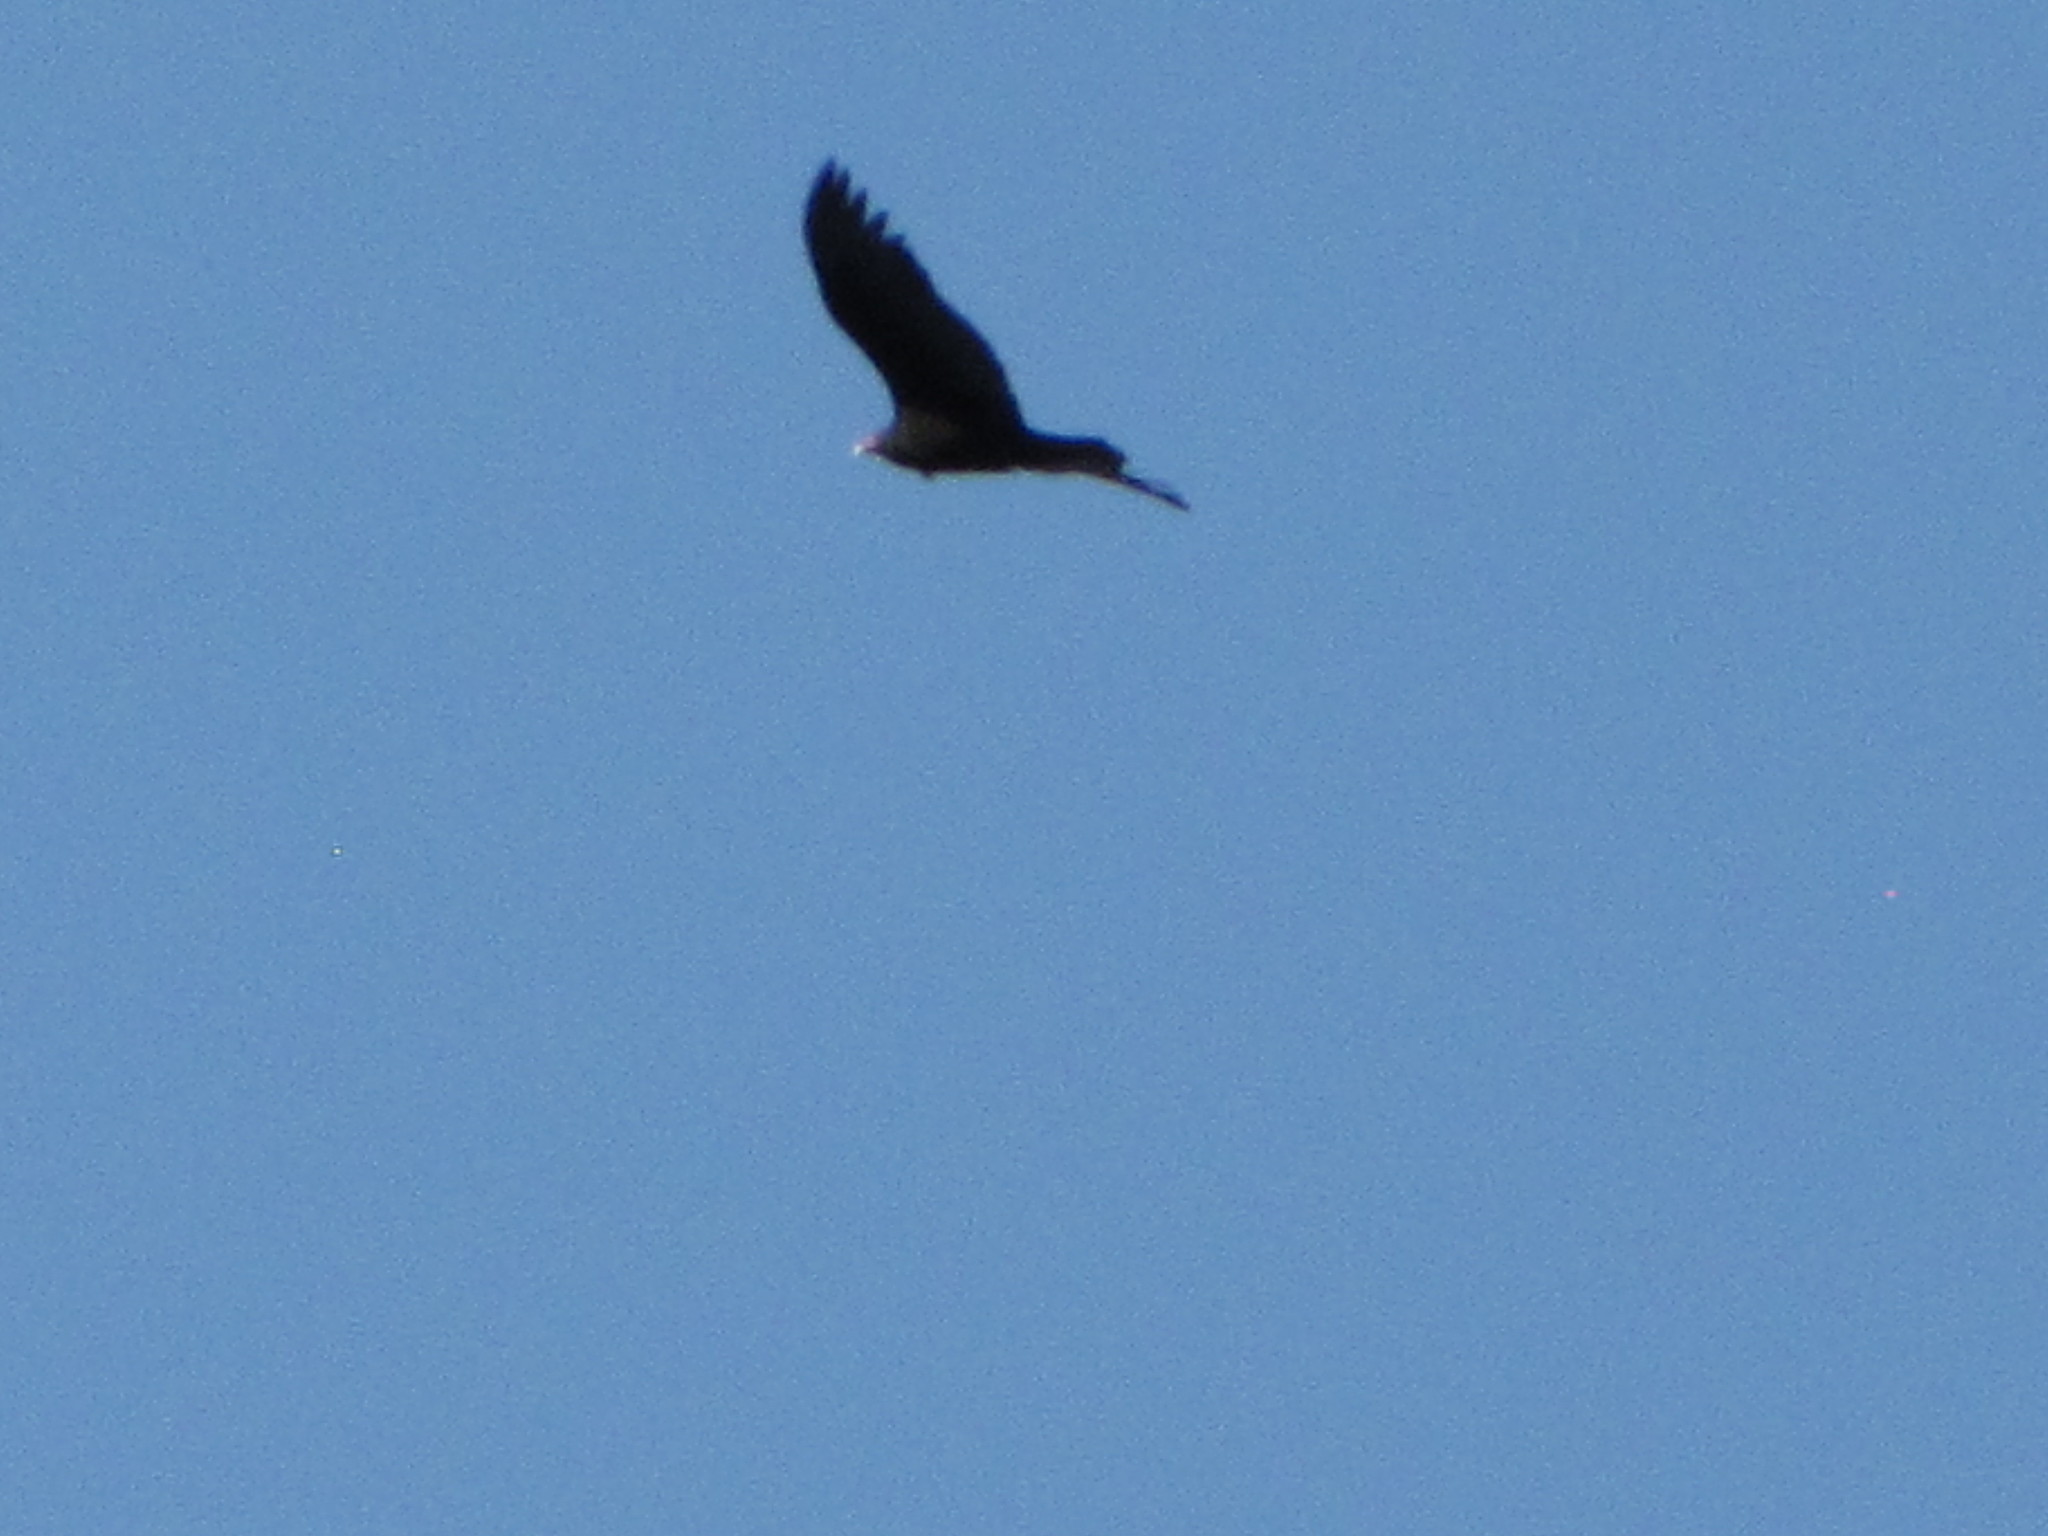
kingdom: Animalia
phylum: Chordata
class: Aves
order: Accipitriformes
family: Cathartidae
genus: Cathartes
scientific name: Cathartes aura
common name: Turkey vulture
